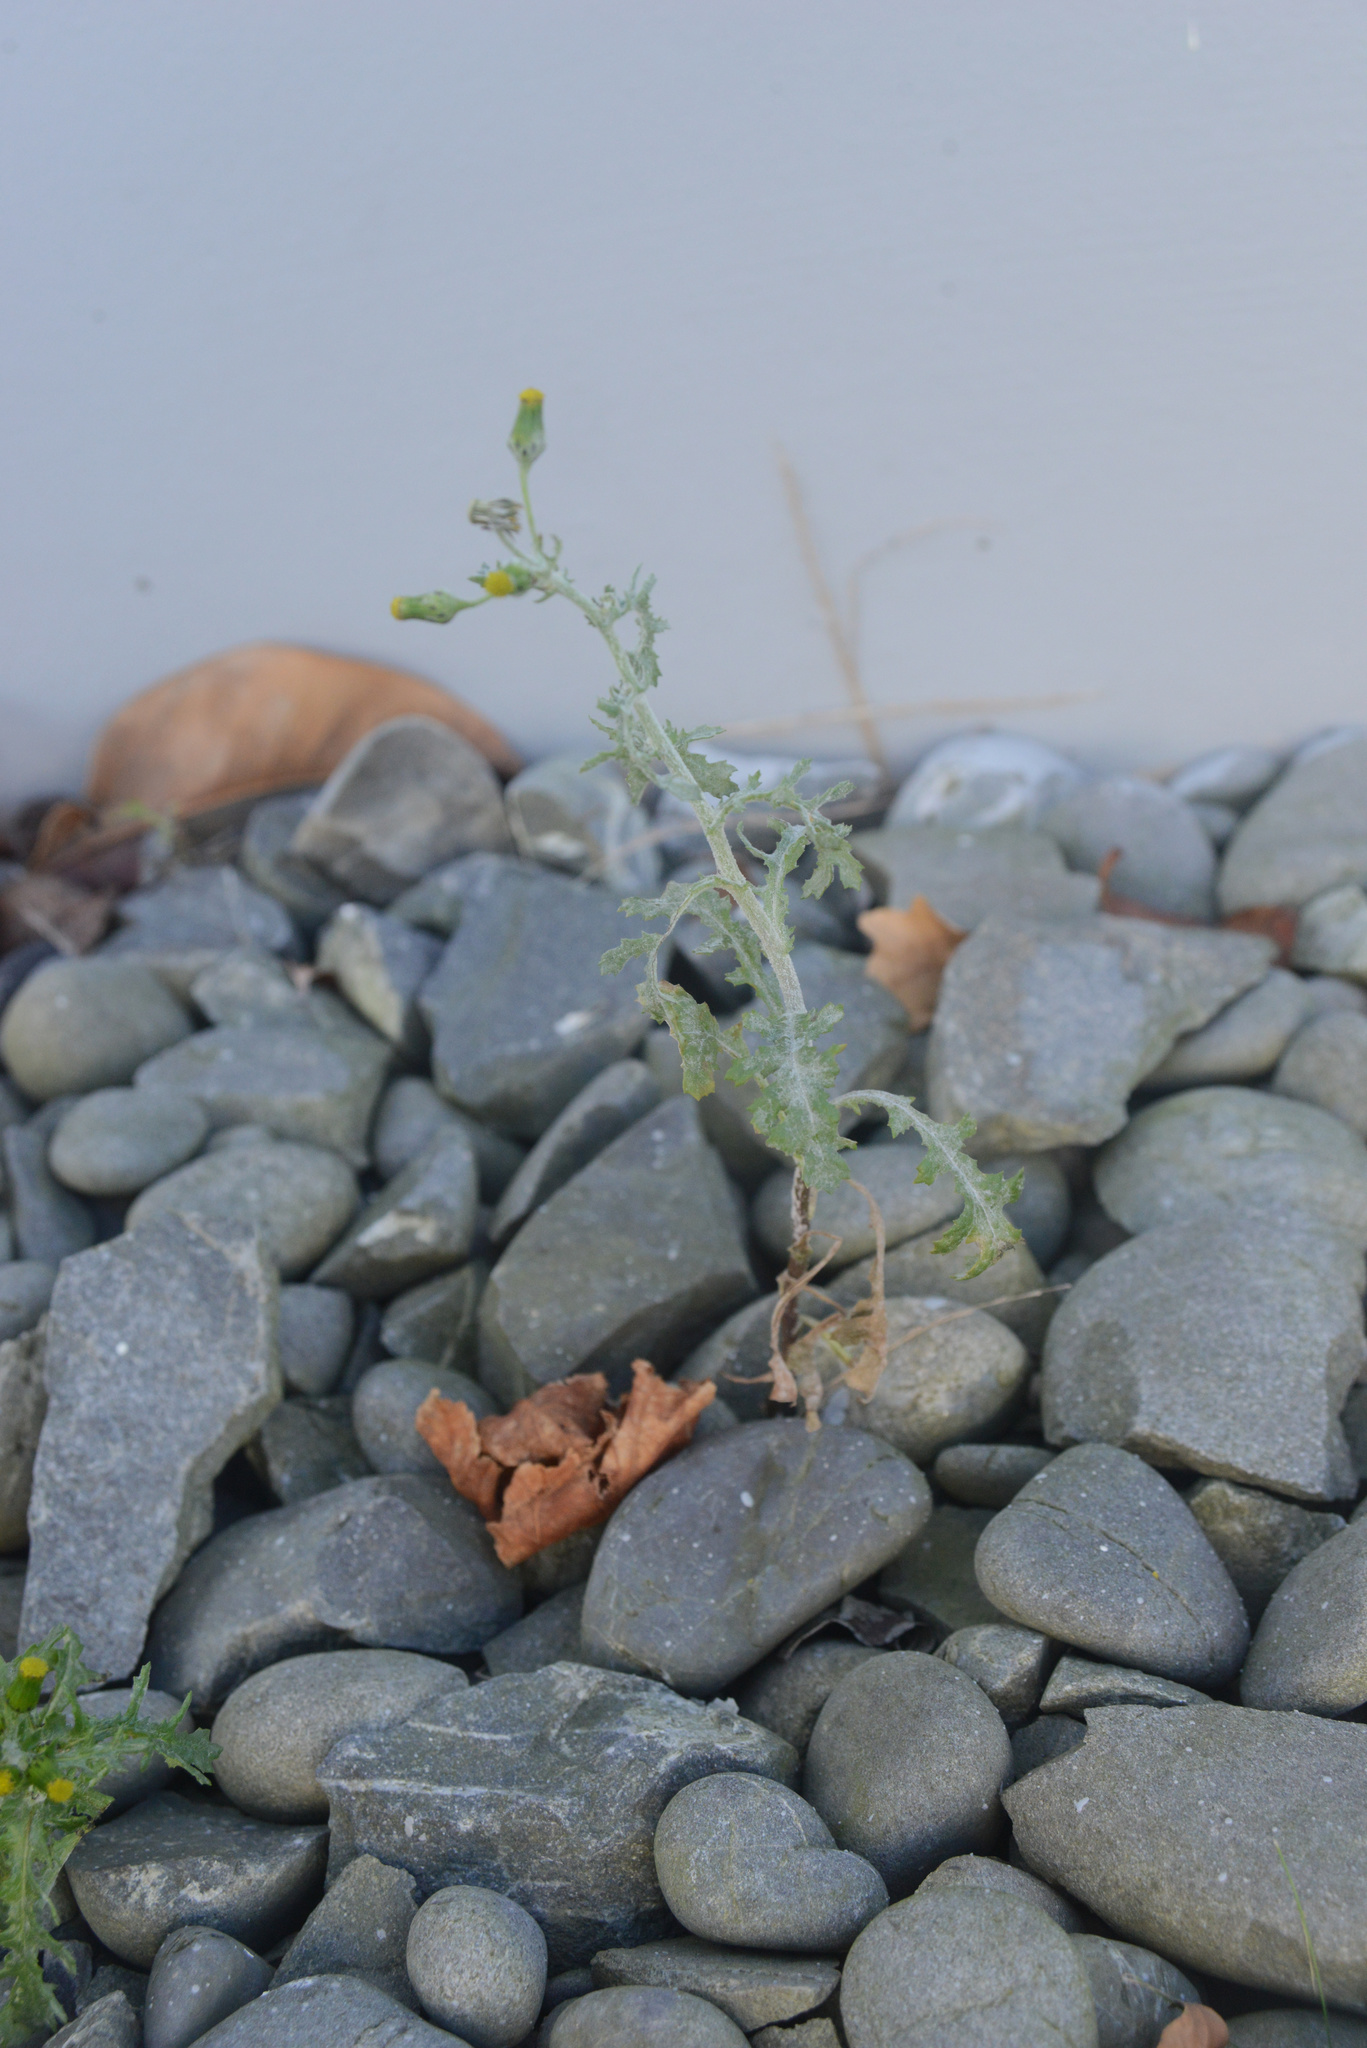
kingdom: Plantae
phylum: Tracheophyta
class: Magnoliopsida
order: Asterales
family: Asteraceae
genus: Senecio
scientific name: Senecio vulgaris
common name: Old-man-in-the-spring
